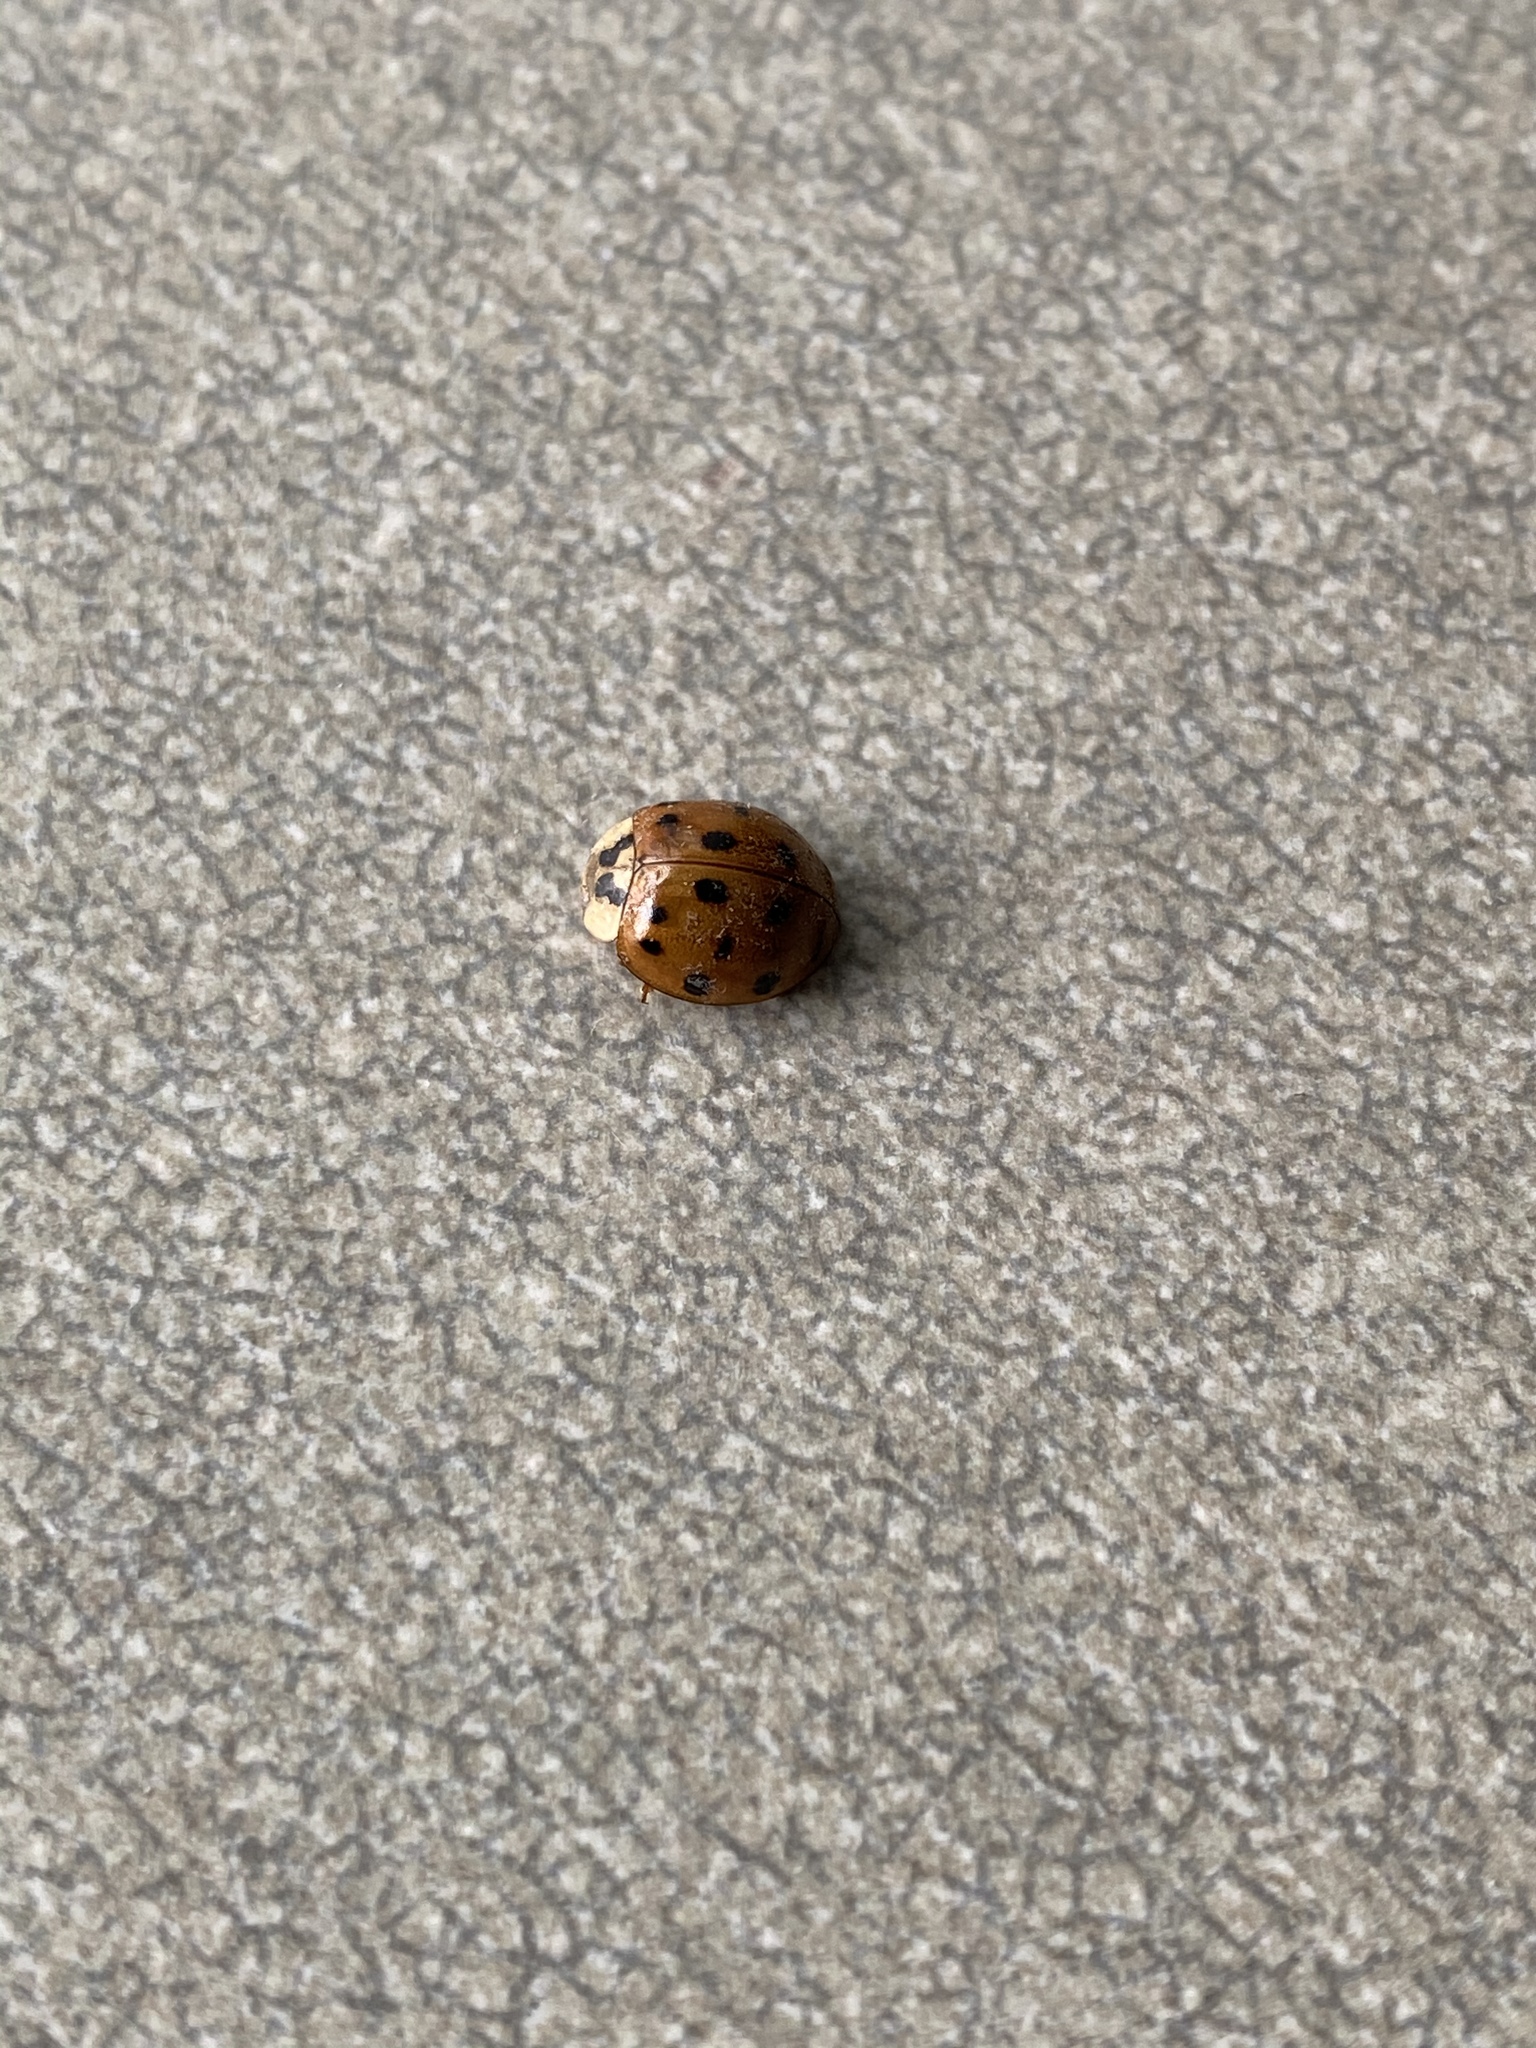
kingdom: Animalia
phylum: Arthropoda
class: Insecta
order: Coleoptera
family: Coccinellidae
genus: Harmonia
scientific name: Harmonia axyridis
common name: Harlequin ladybird
